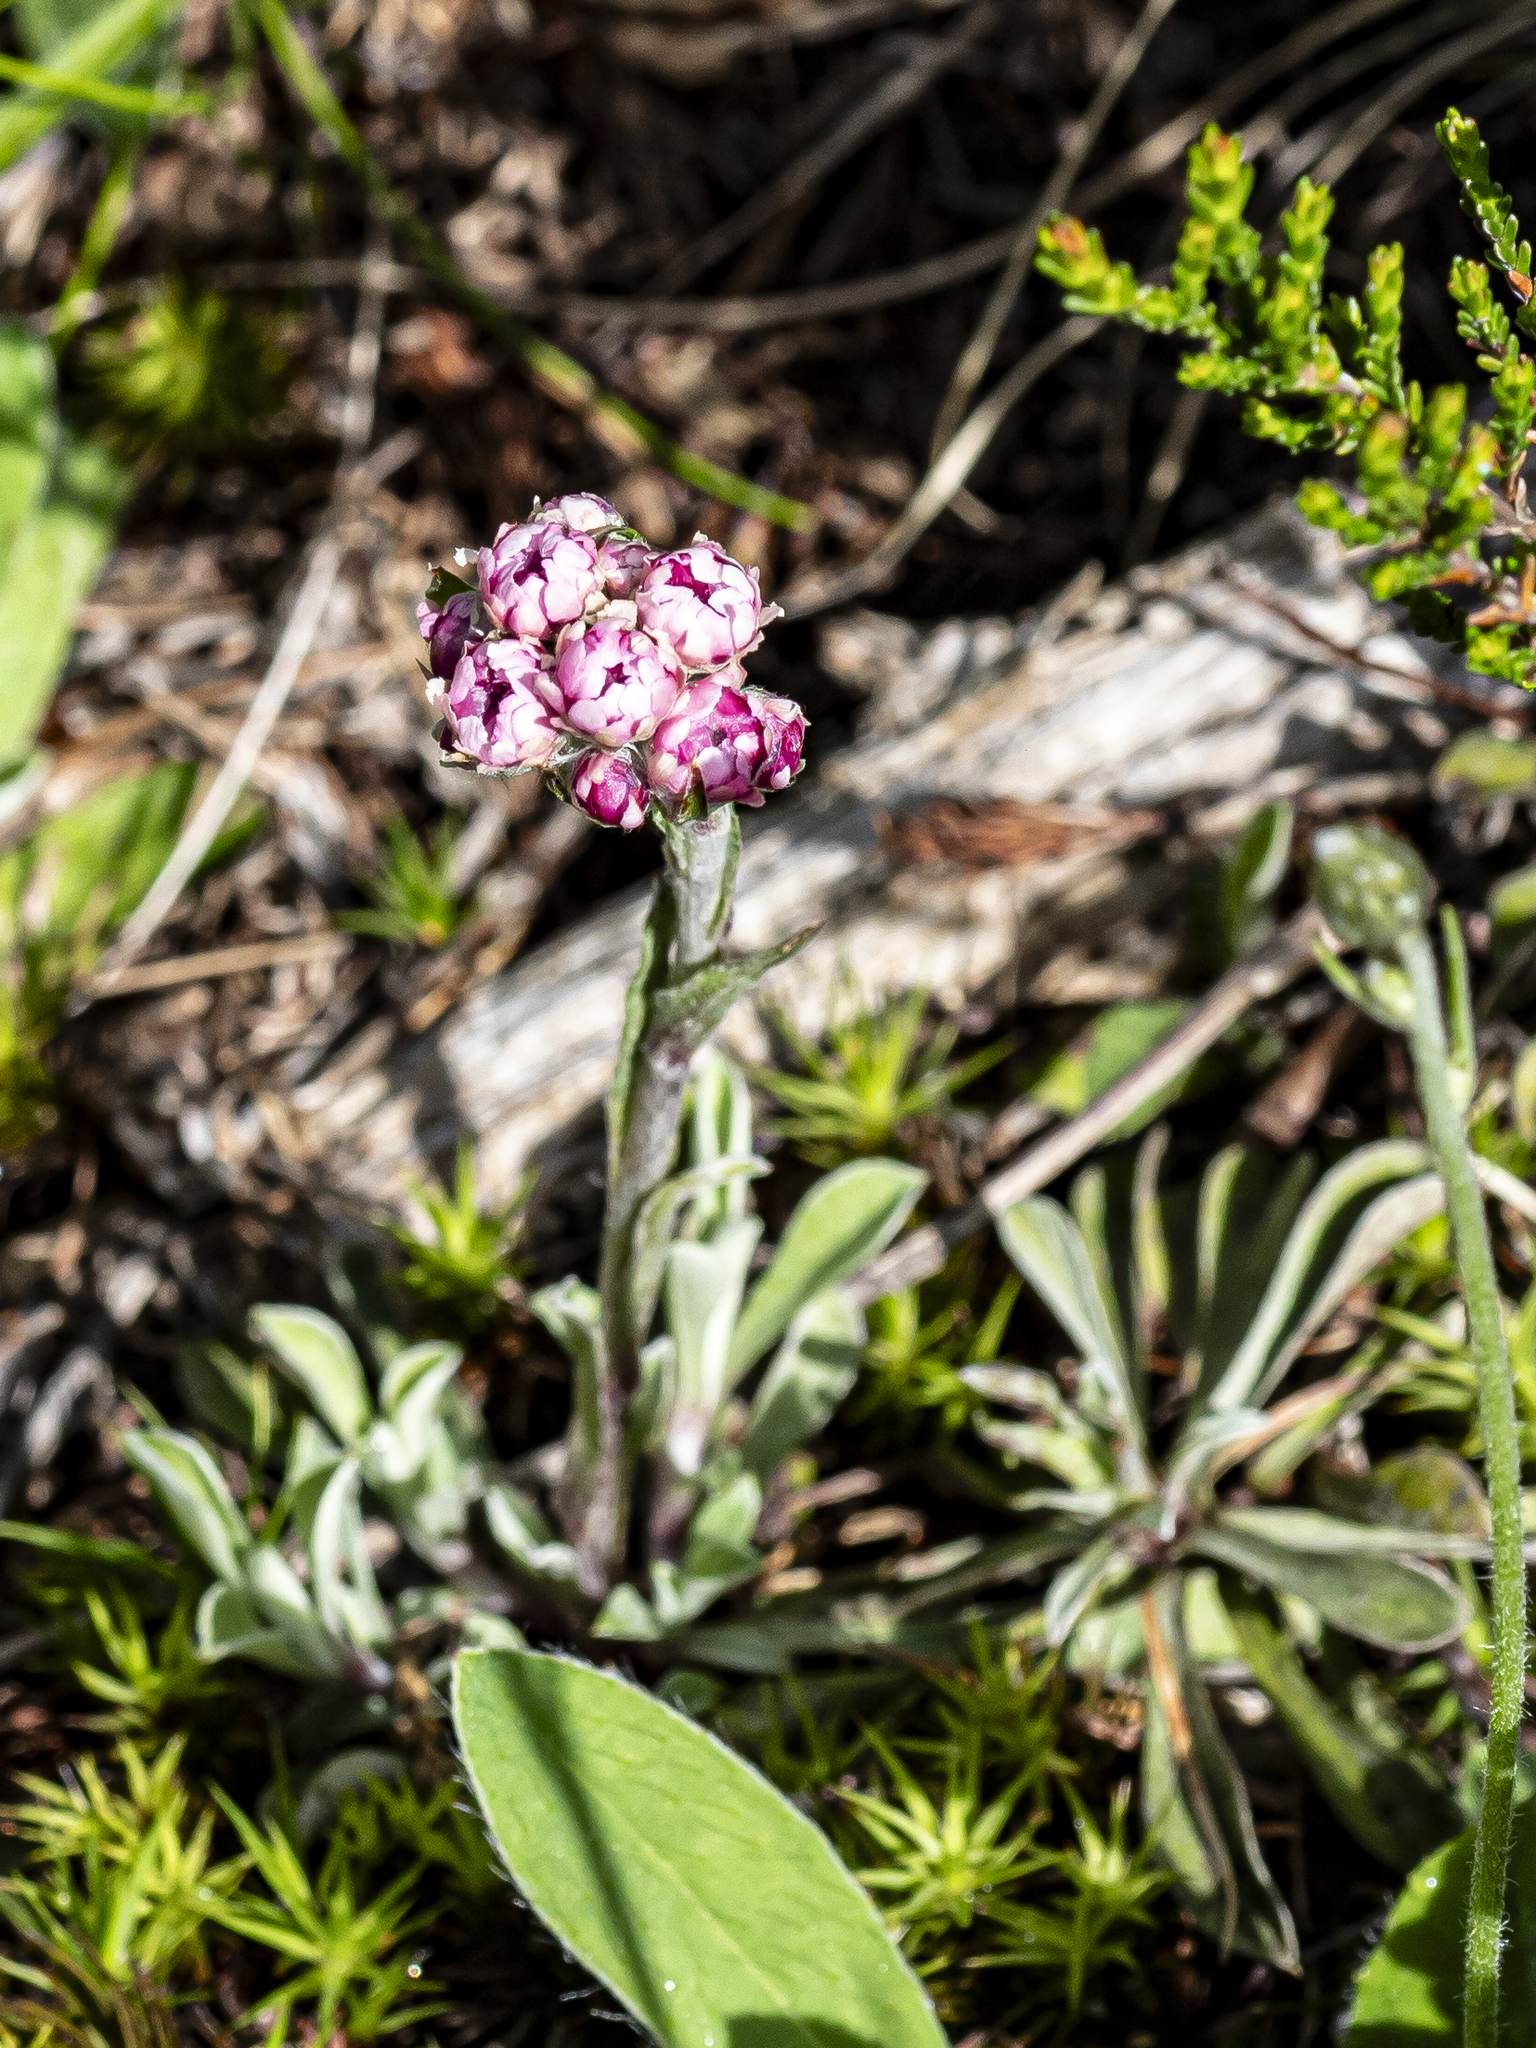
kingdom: Plantae
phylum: Tracheophyta
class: Magnoliopsida
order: Asterales
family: Asteraceae
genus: Antennaria
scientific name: Antennaria dioica
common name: Mountain everlasting
